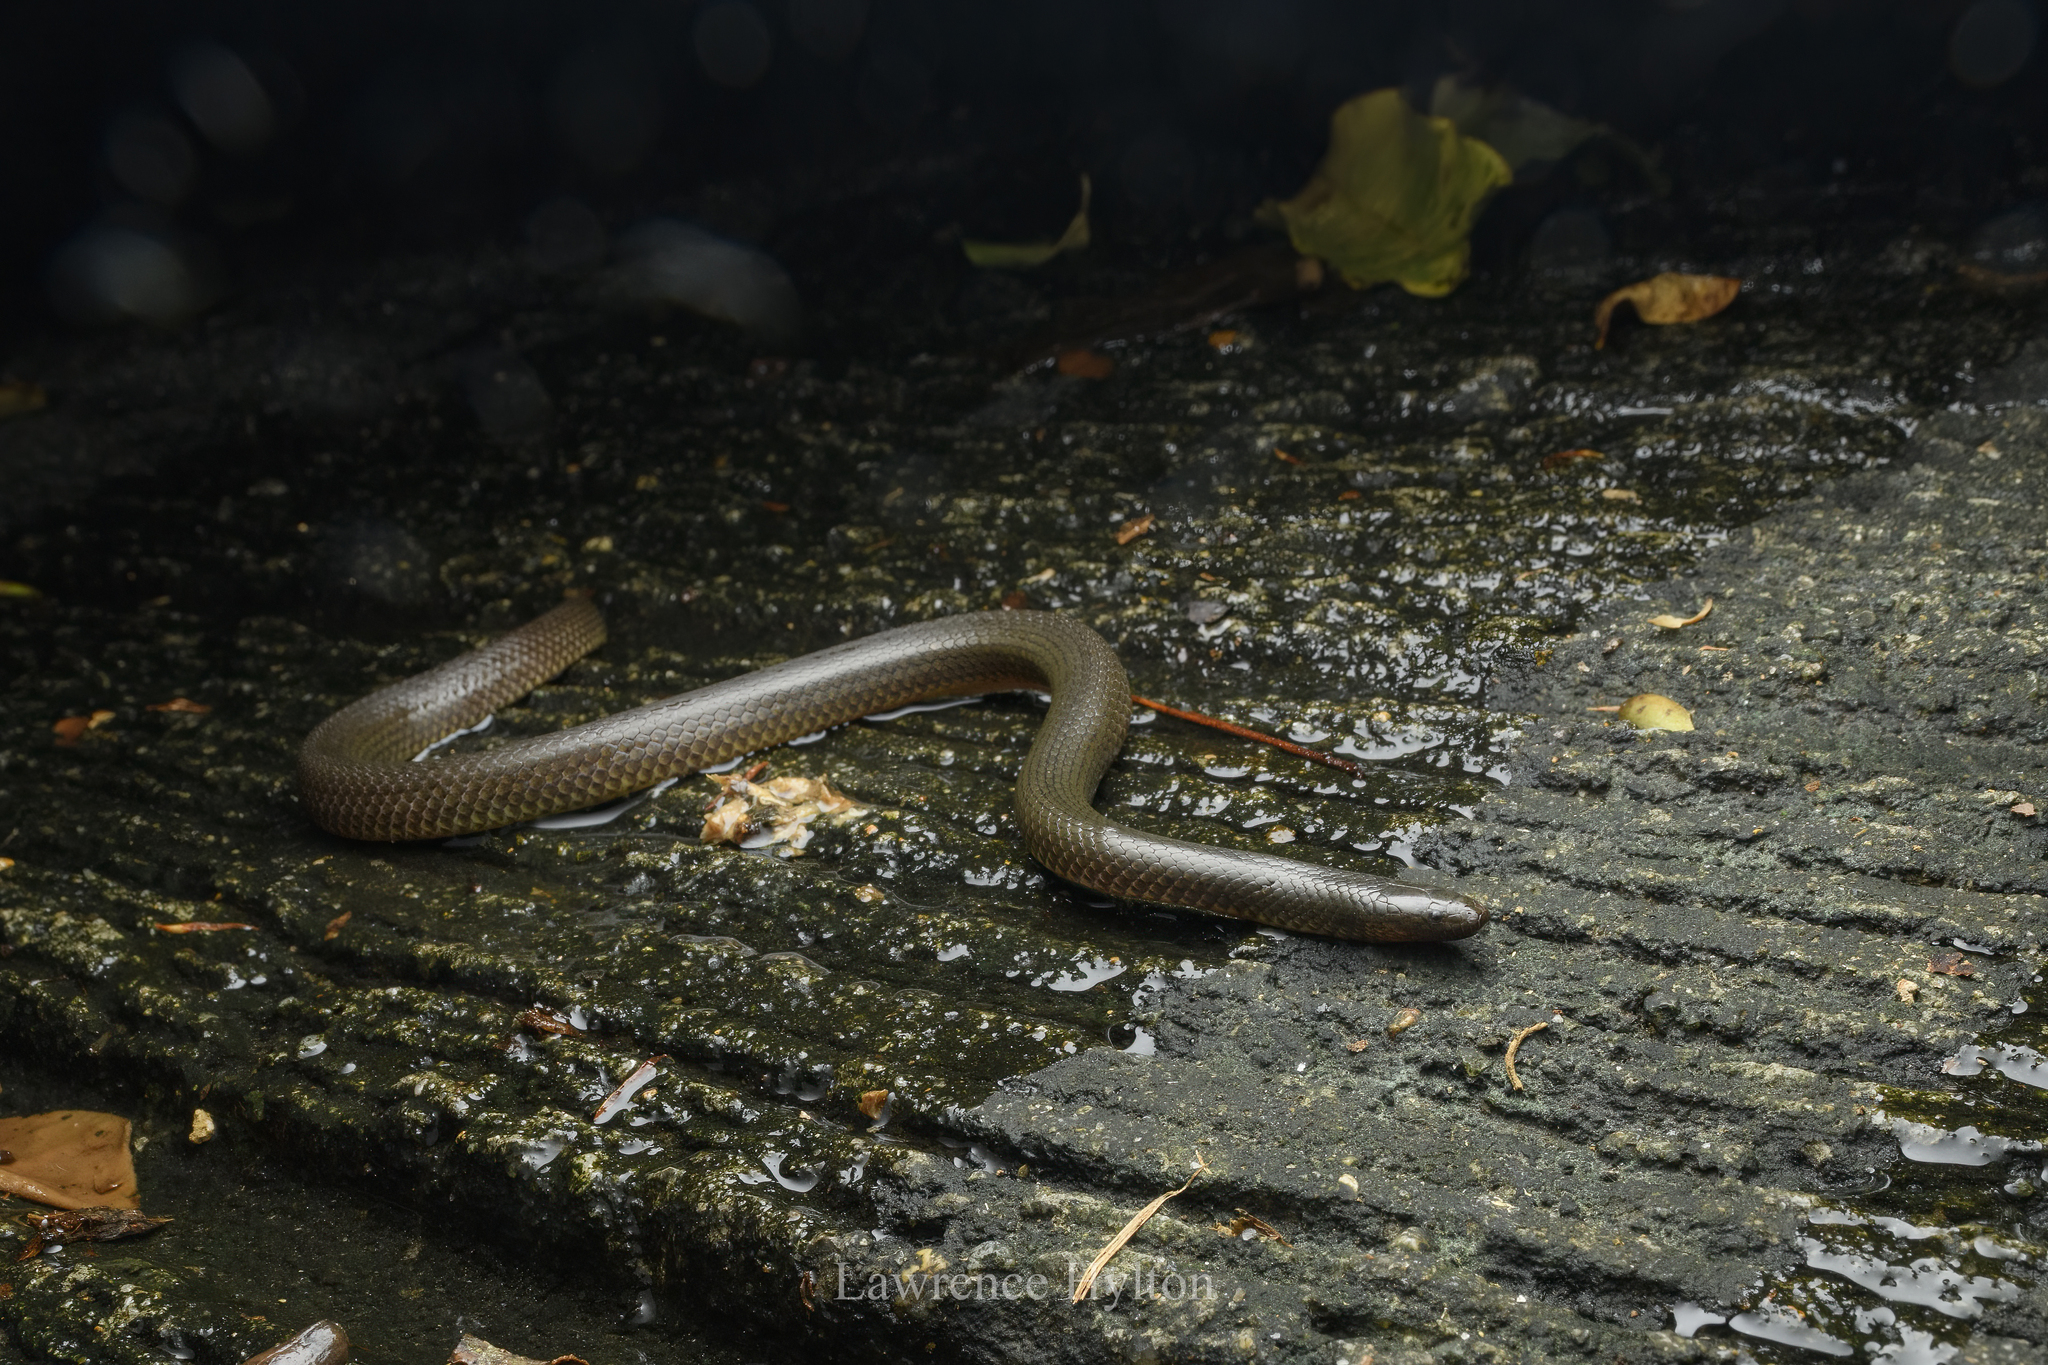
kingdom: Animalia
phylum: Chordata
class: Squamata
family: Colubridae
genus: Opisthotropis
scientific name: Opisthotropis andersonii
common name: Anderson's mountain keelback
